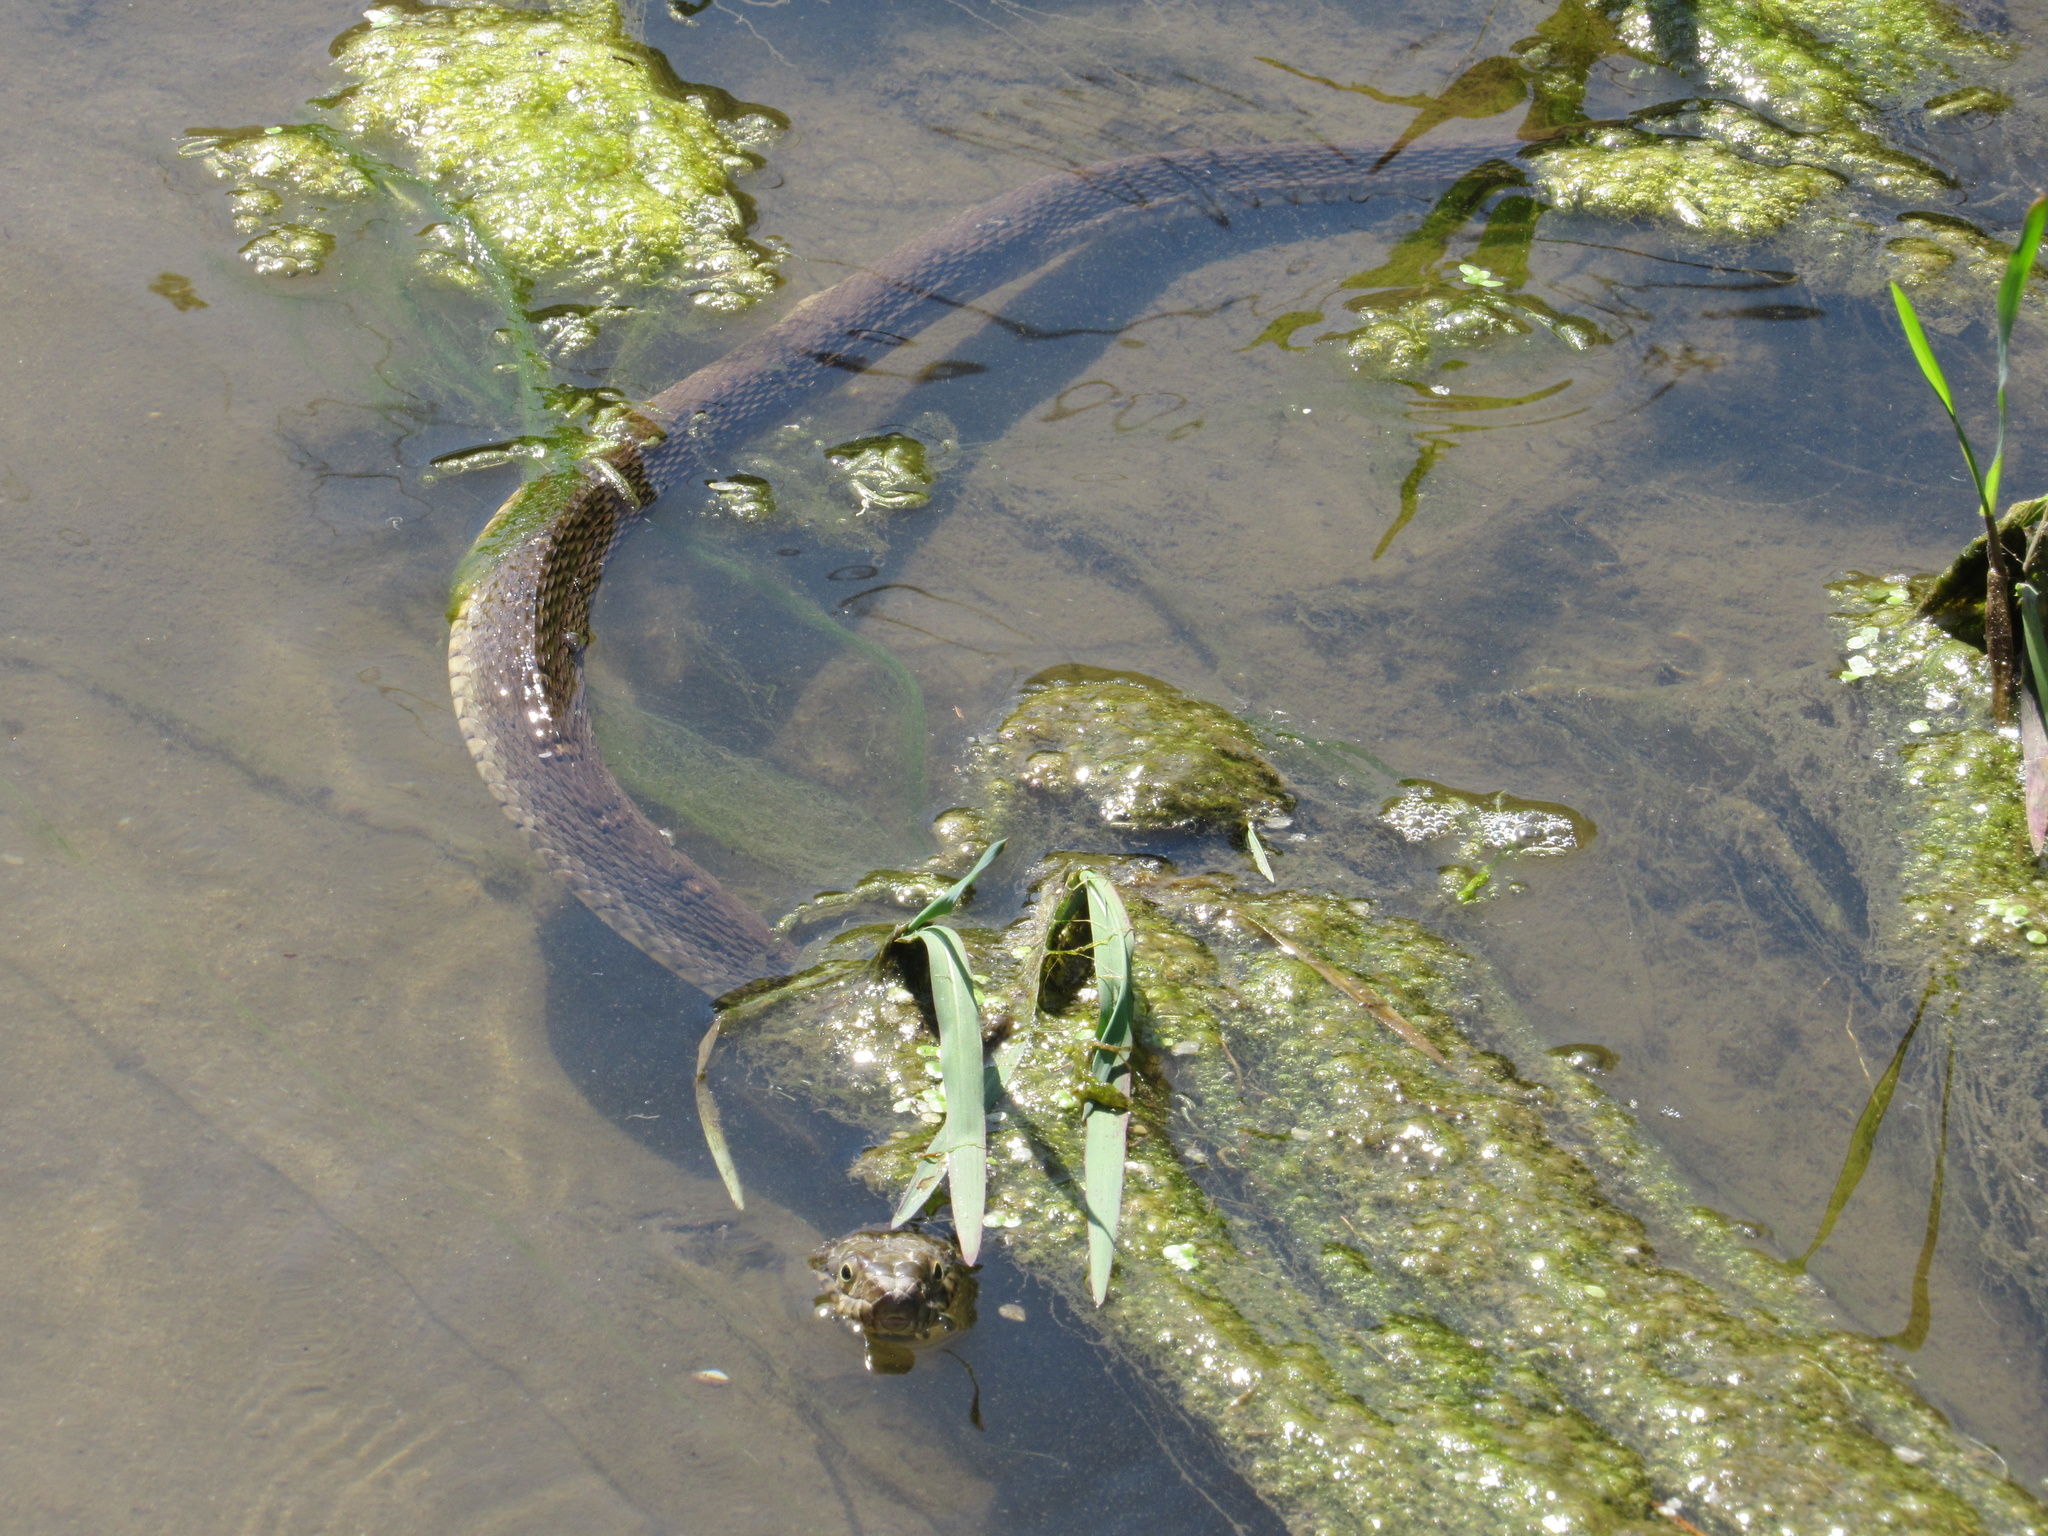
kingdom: Animalia
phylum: Chordata
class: Squamata
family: Colubridae
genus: Nerodia
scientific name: Nerodia erythrogaster
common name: Plainbelly water snake
